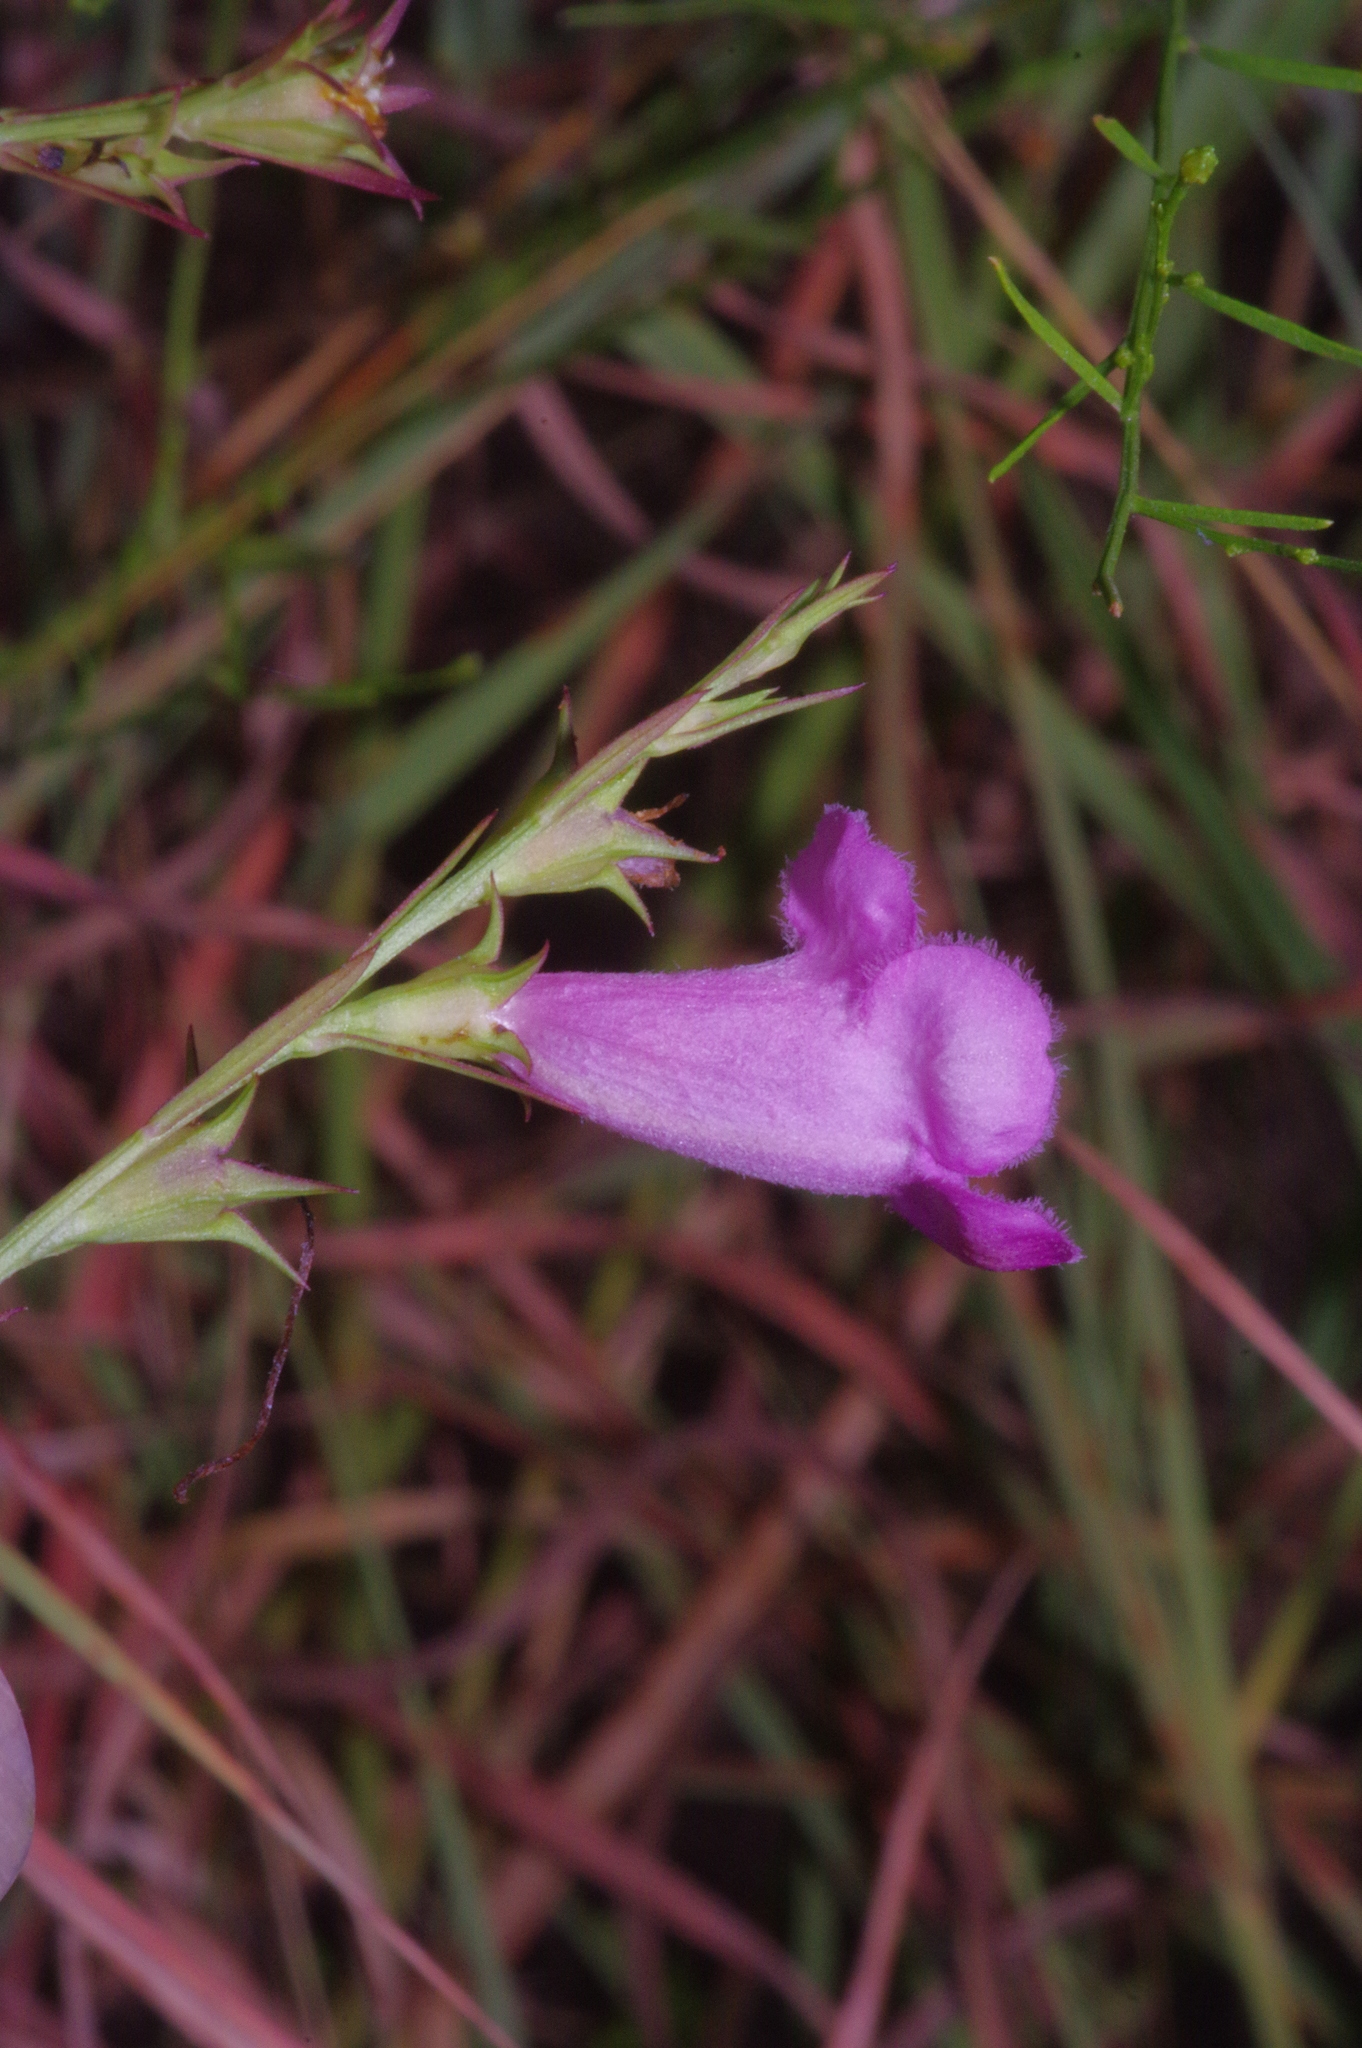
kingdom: Plantae
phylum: Tracheophyta
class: Magnoliopsida
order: Lamiales
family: Orobanchaceae
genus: Agalinis
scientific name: Agalinis heterophylla
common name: Prairie agalinis
